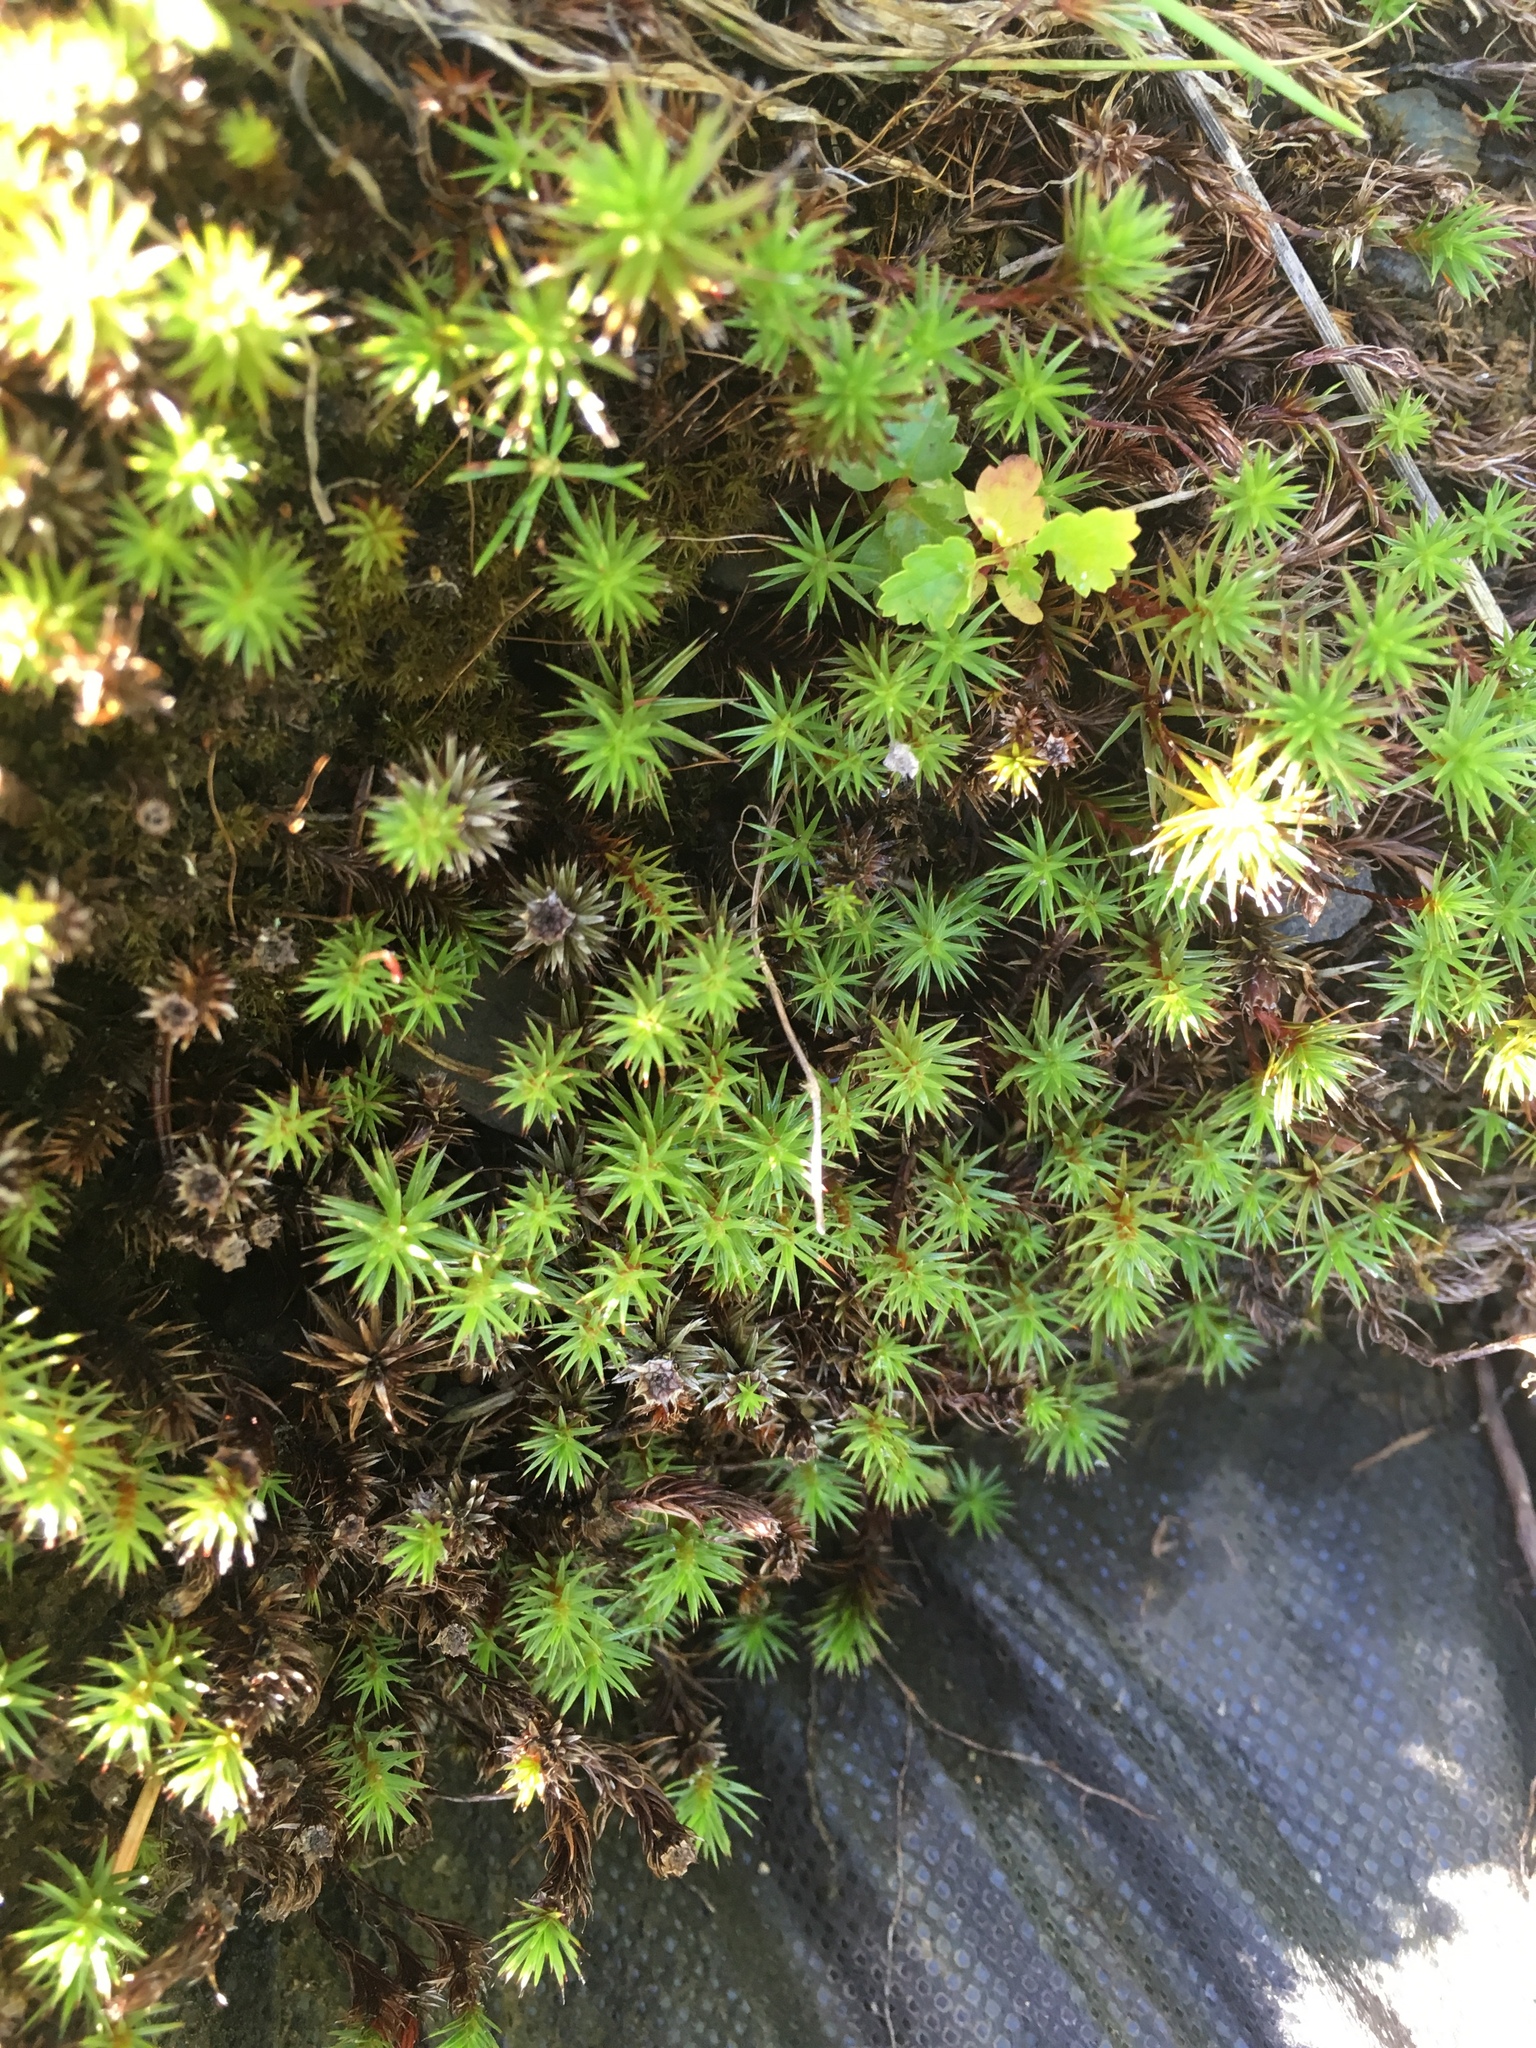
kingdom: Plantae
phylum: Bryophyta
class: Polytrichopsida
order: Polytrichales
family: Polytrichaceae
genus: Polytrichum
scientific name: Polytrichum juniperinum
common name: Juniper haircap moss
